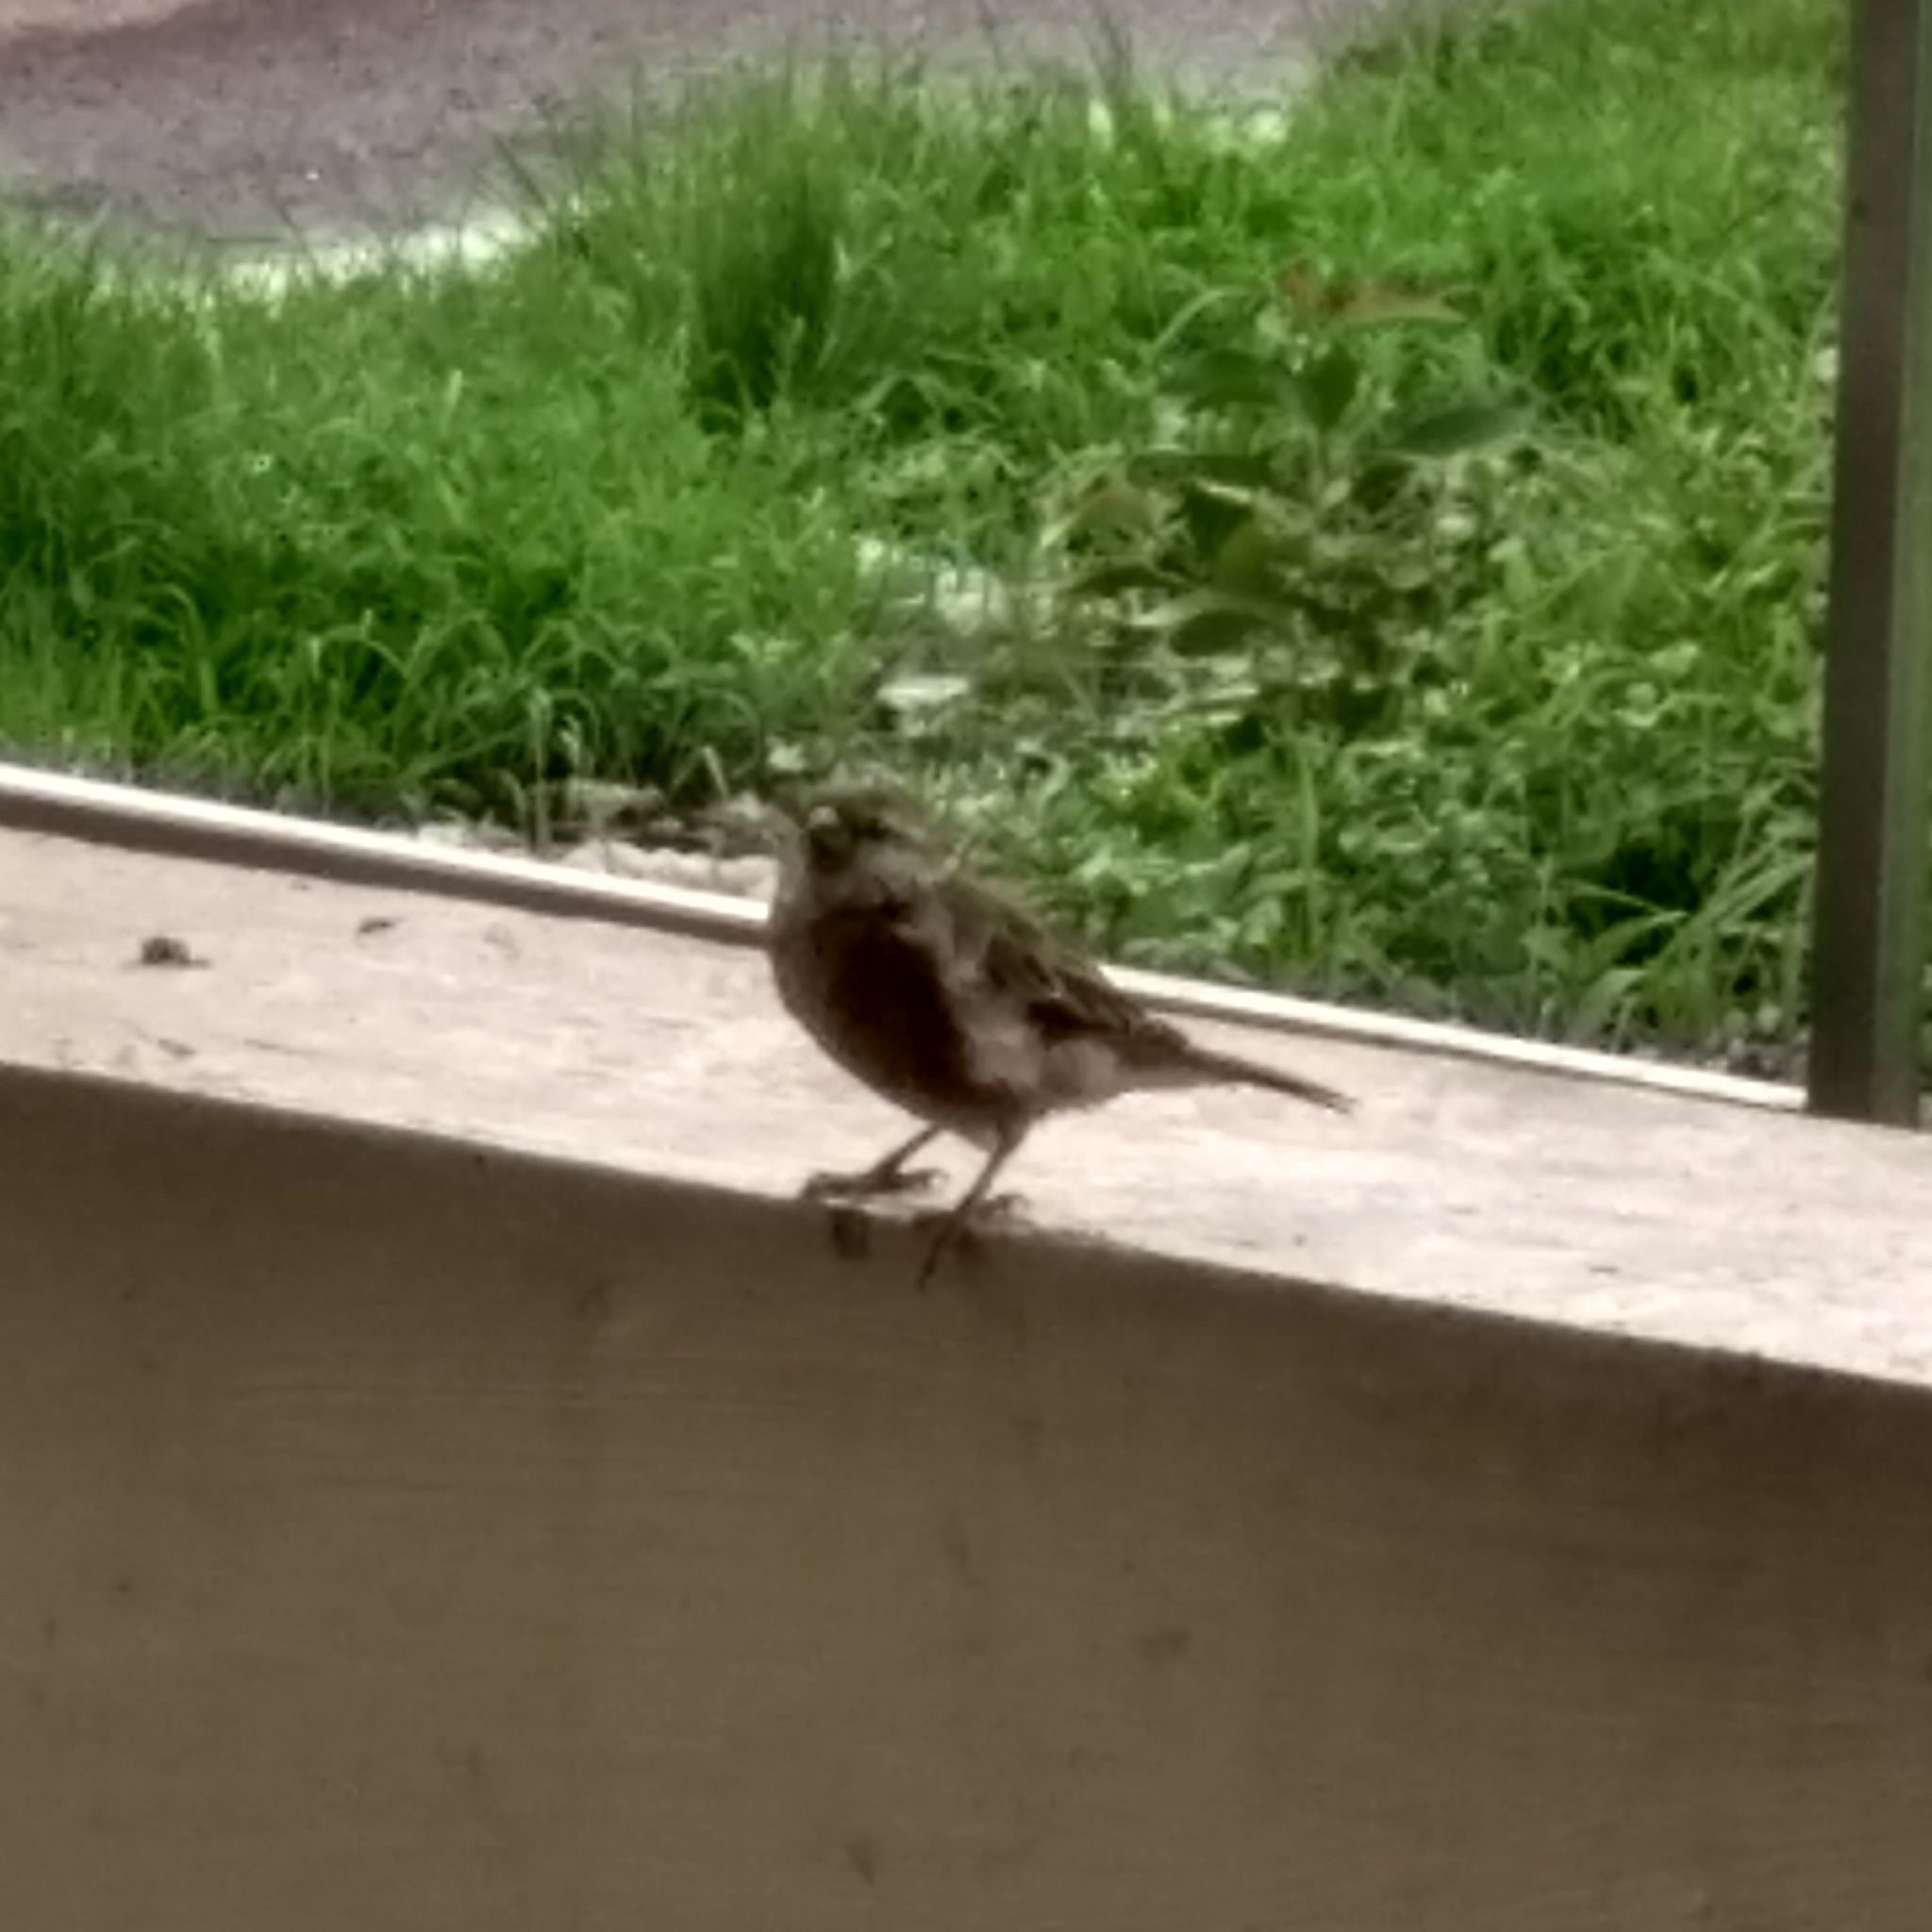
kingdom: Animalia
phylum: Chordata
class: Aves
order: Passeriformes
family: Passeridae
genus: Passer
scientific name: Passer domesticus
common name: House sparrow
